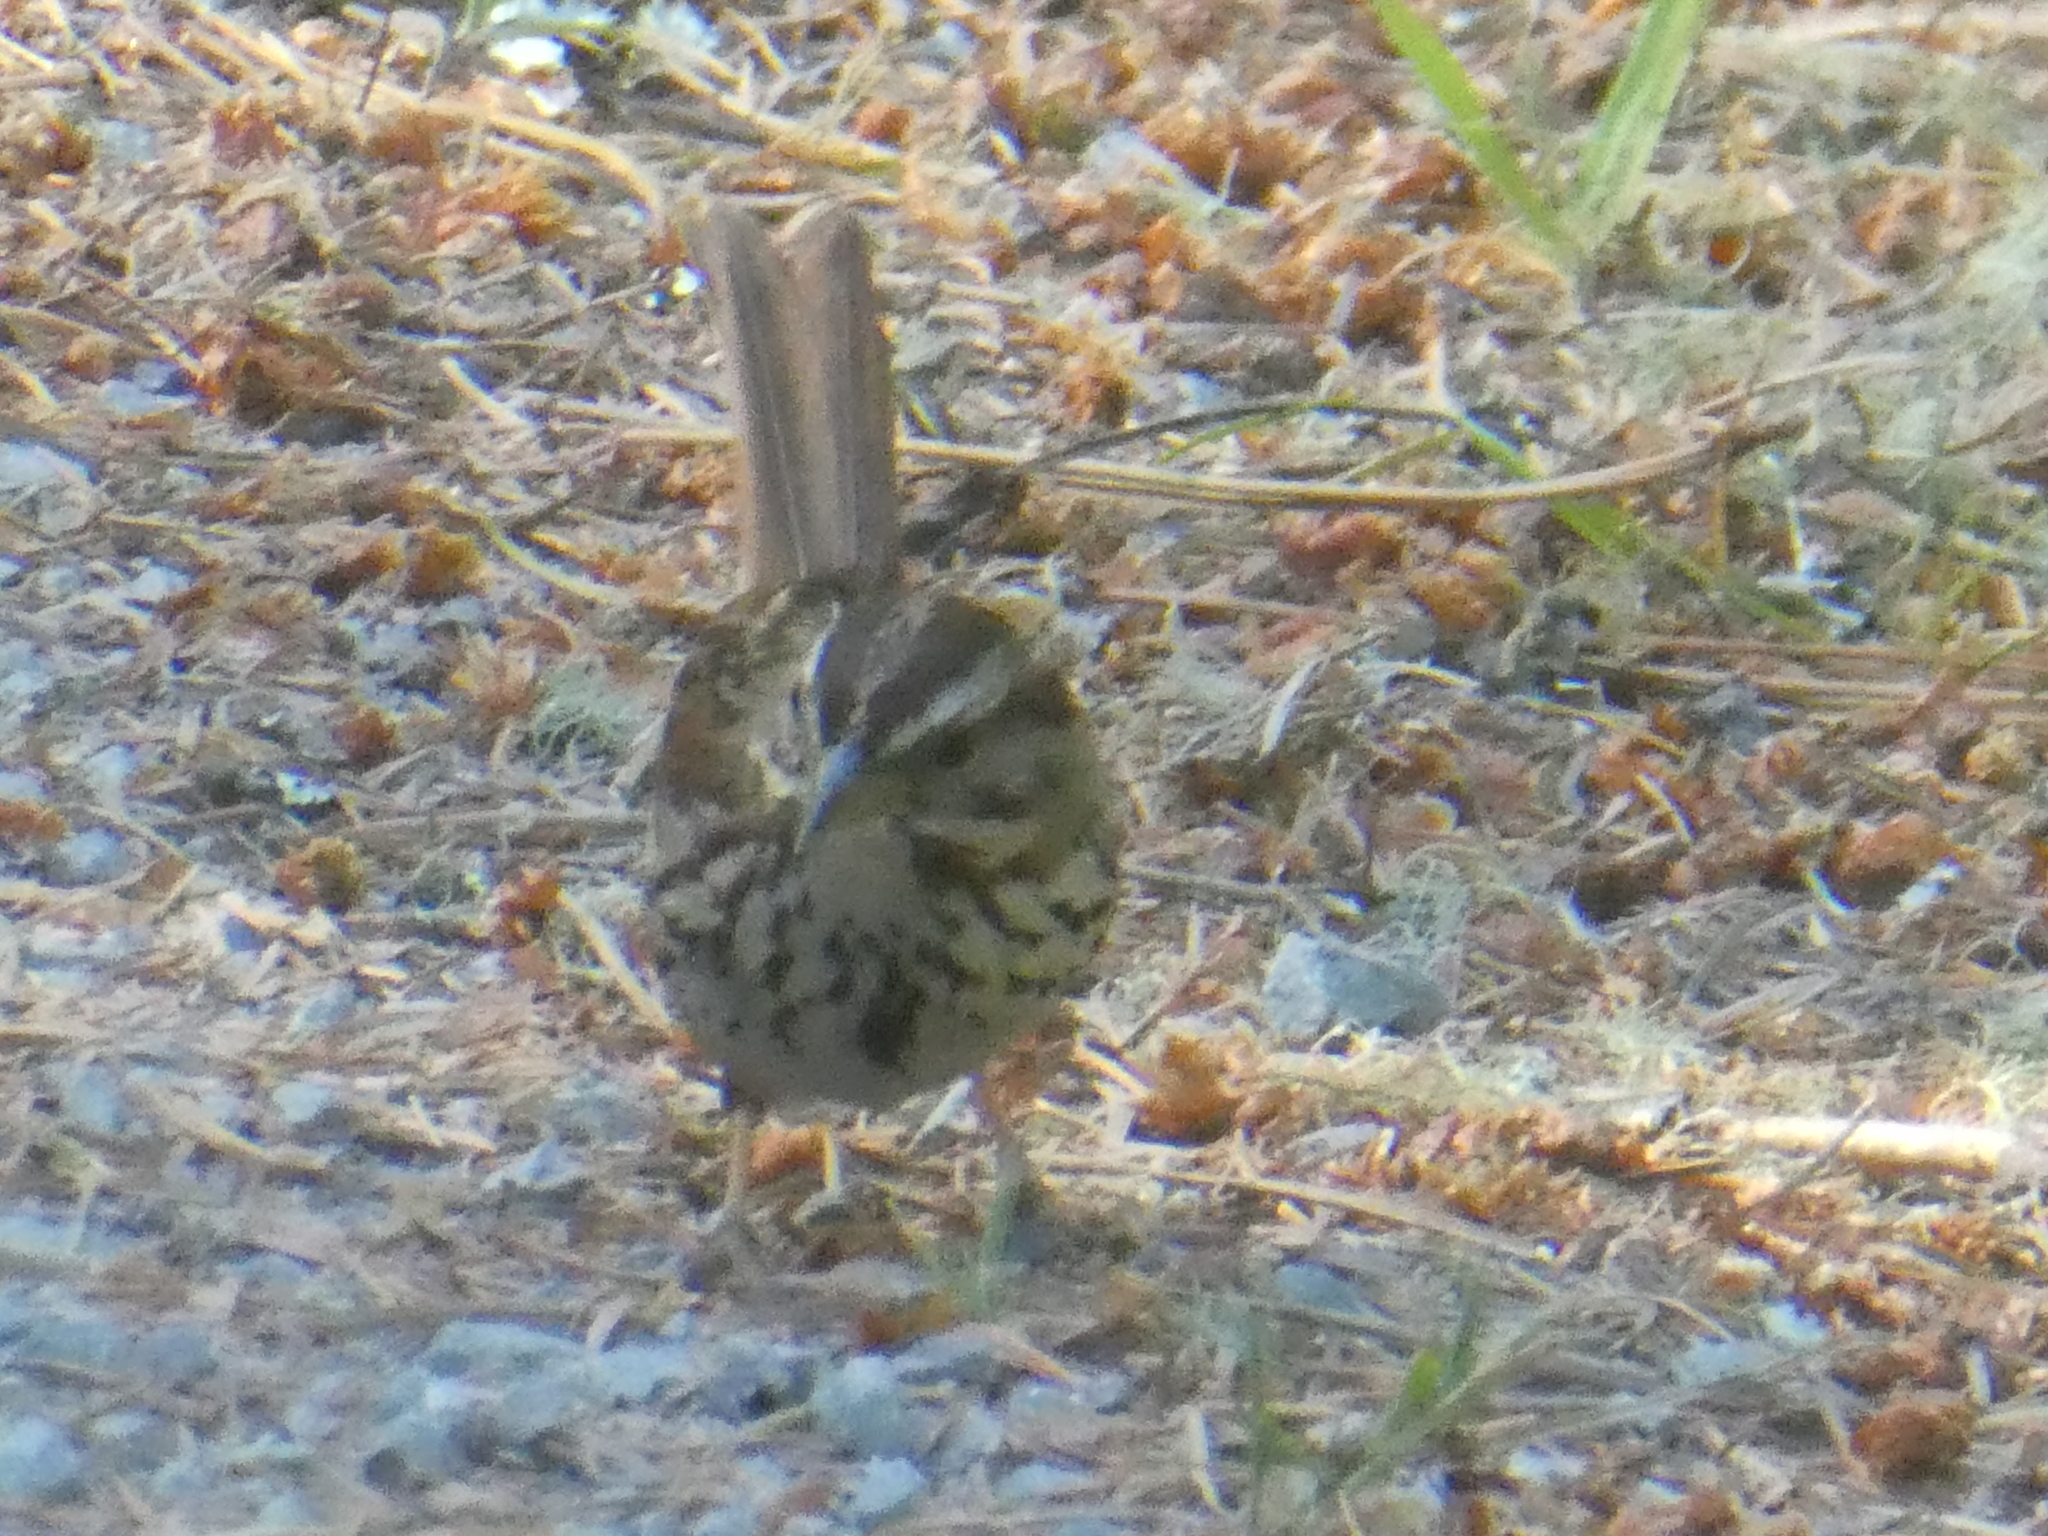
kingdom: Animalia
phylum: Chordata
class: Aves
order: Passeriformes
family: Passerellidae
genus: Melospiza
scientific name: Melospiza melodia
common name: Song sparrow
